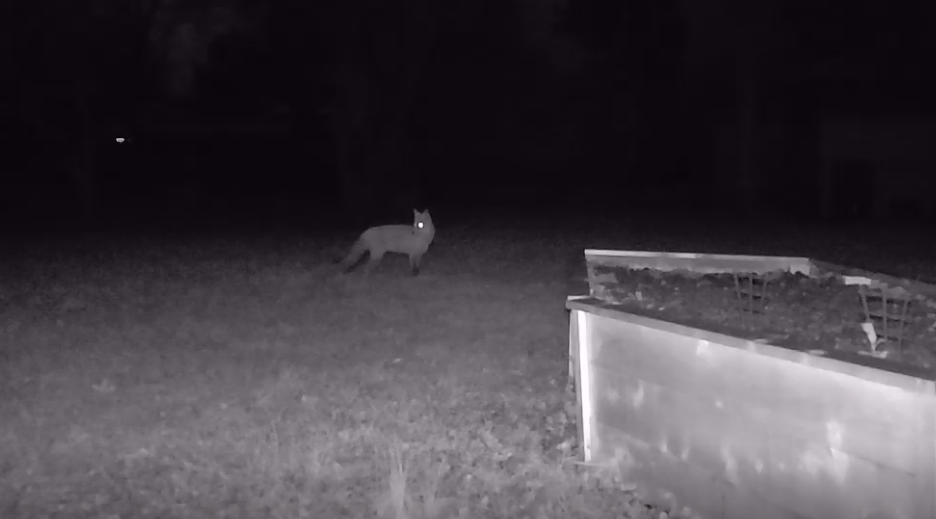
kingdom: Animalia
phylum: Chordata
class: Mammalia
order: Carnivora
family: Canidae
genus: Vulpes
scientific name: Vulpes vulpes
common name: Red fox
